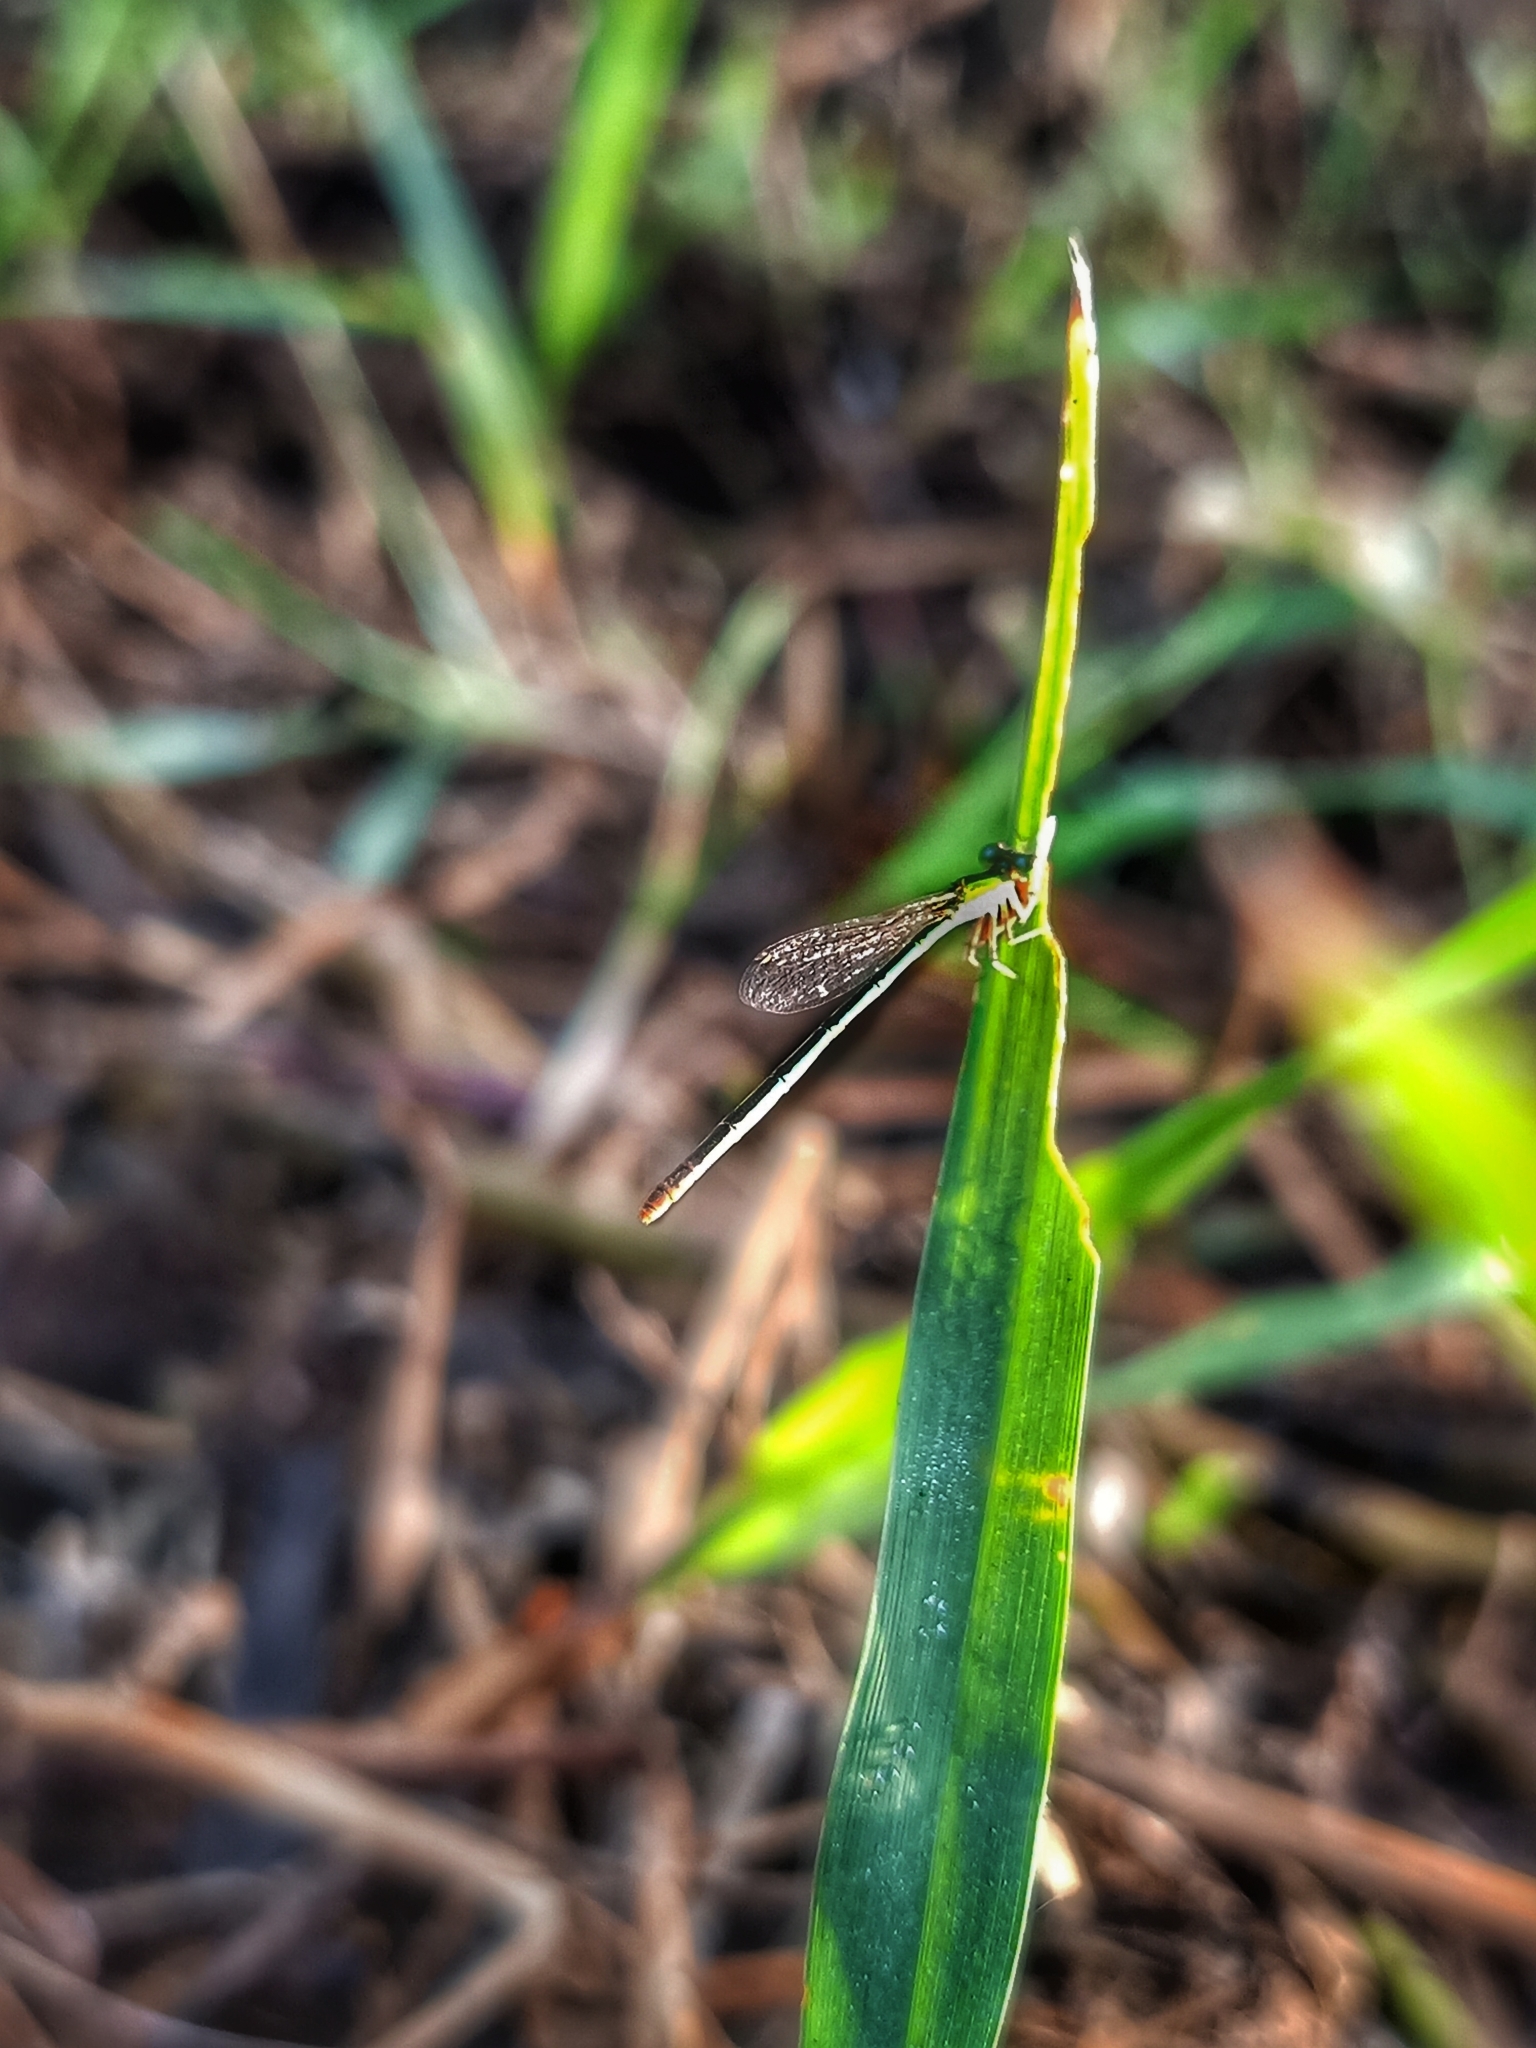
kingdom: Animalia
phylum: Arthropoda
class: Insecta
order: Odonata
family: Coenagrionidae
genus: Agriocnemis
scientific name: Agriocnemis pygmaea
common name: Pygmy wisp
